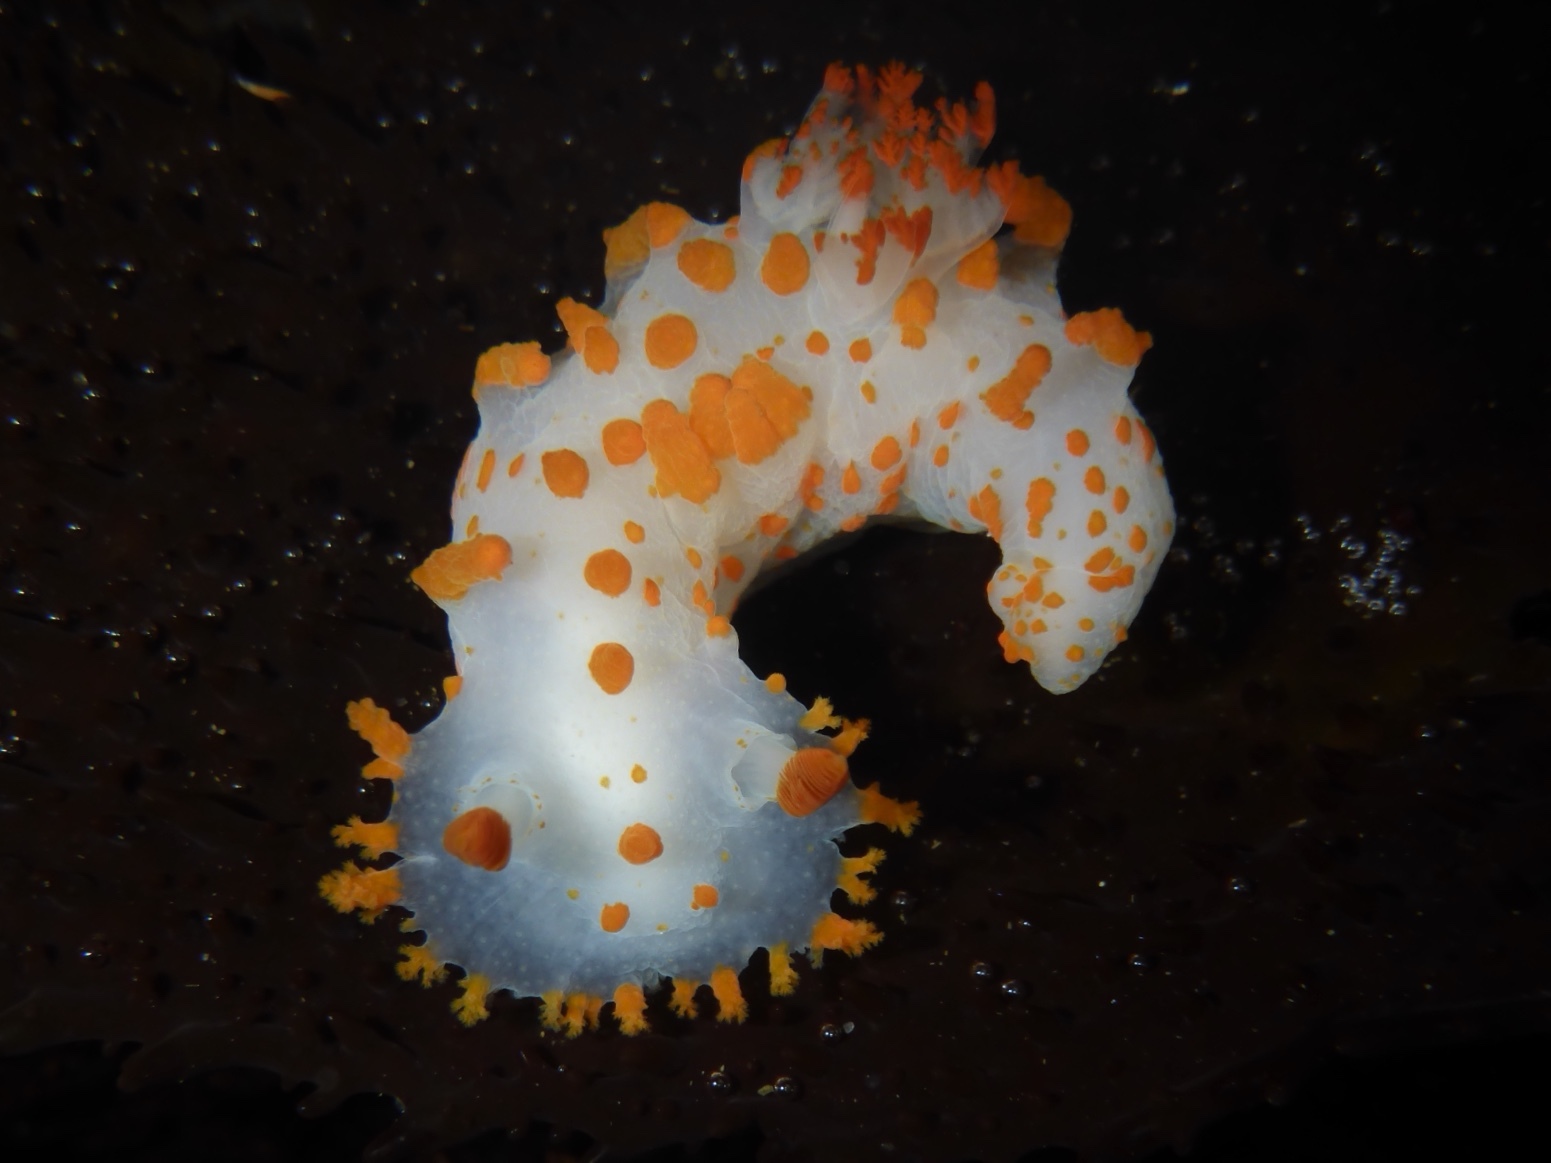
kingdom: Animalia
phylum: Mollusca
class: Gastropoda
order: Nudibranchia
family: Polyceridae
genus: Triopha
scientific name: Triopha catalinae
